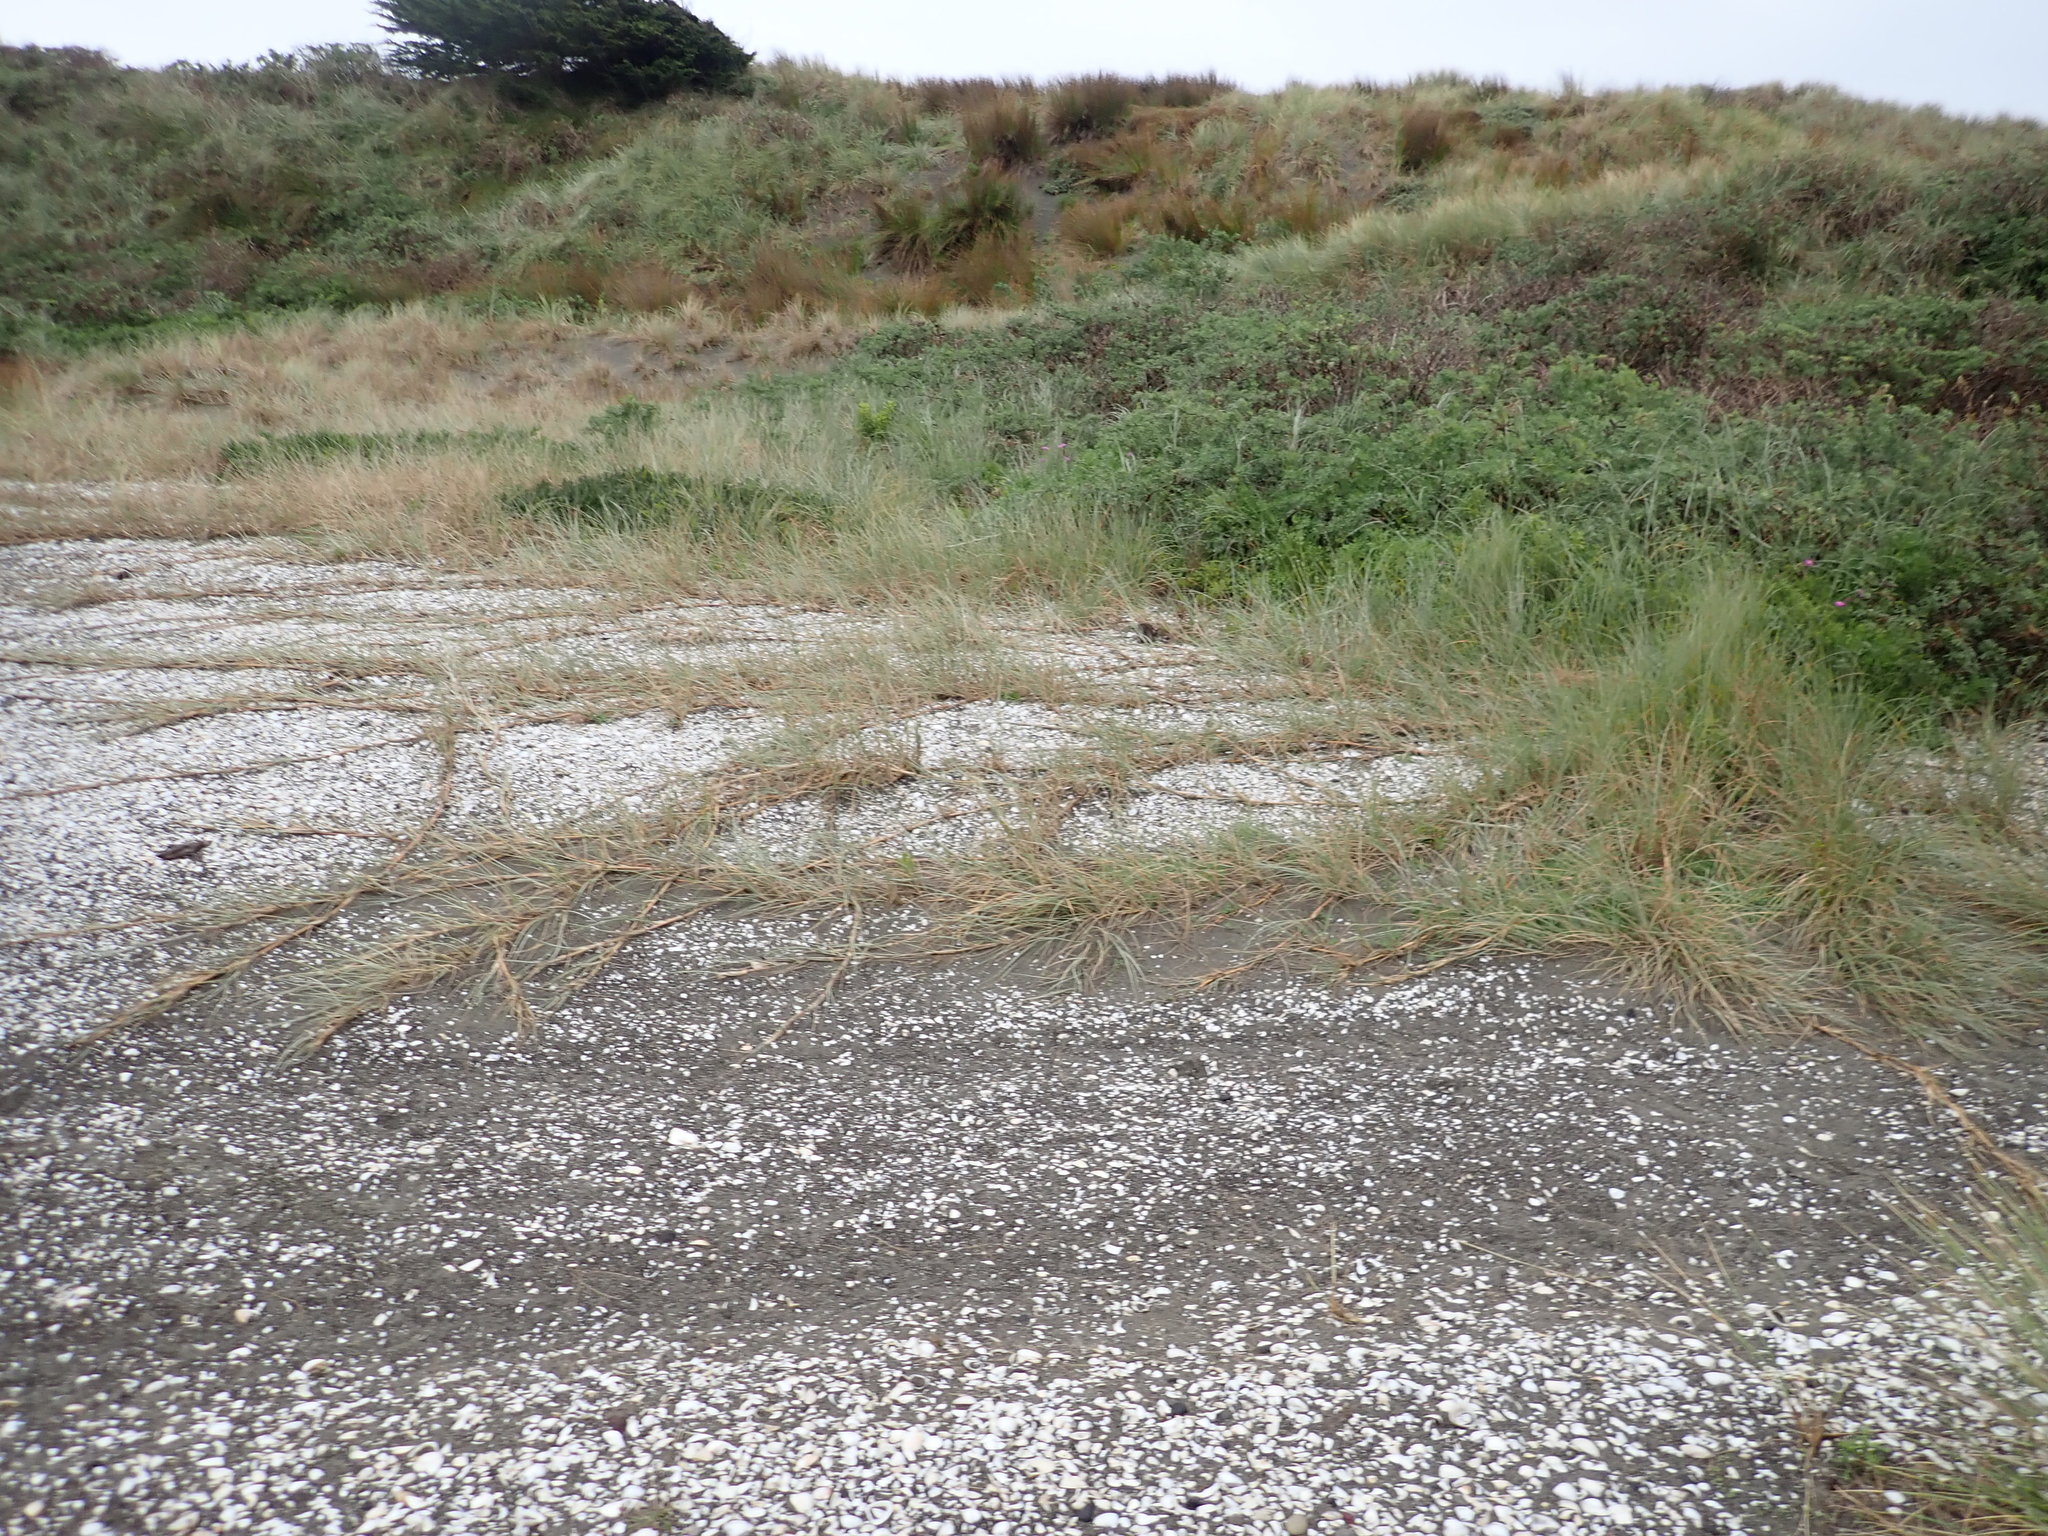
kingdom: Plantae
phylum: Tracheophyta
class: Liliopsida
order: Poales
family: Poaceae
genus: Spinifex
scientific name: Spinifex sericeus
